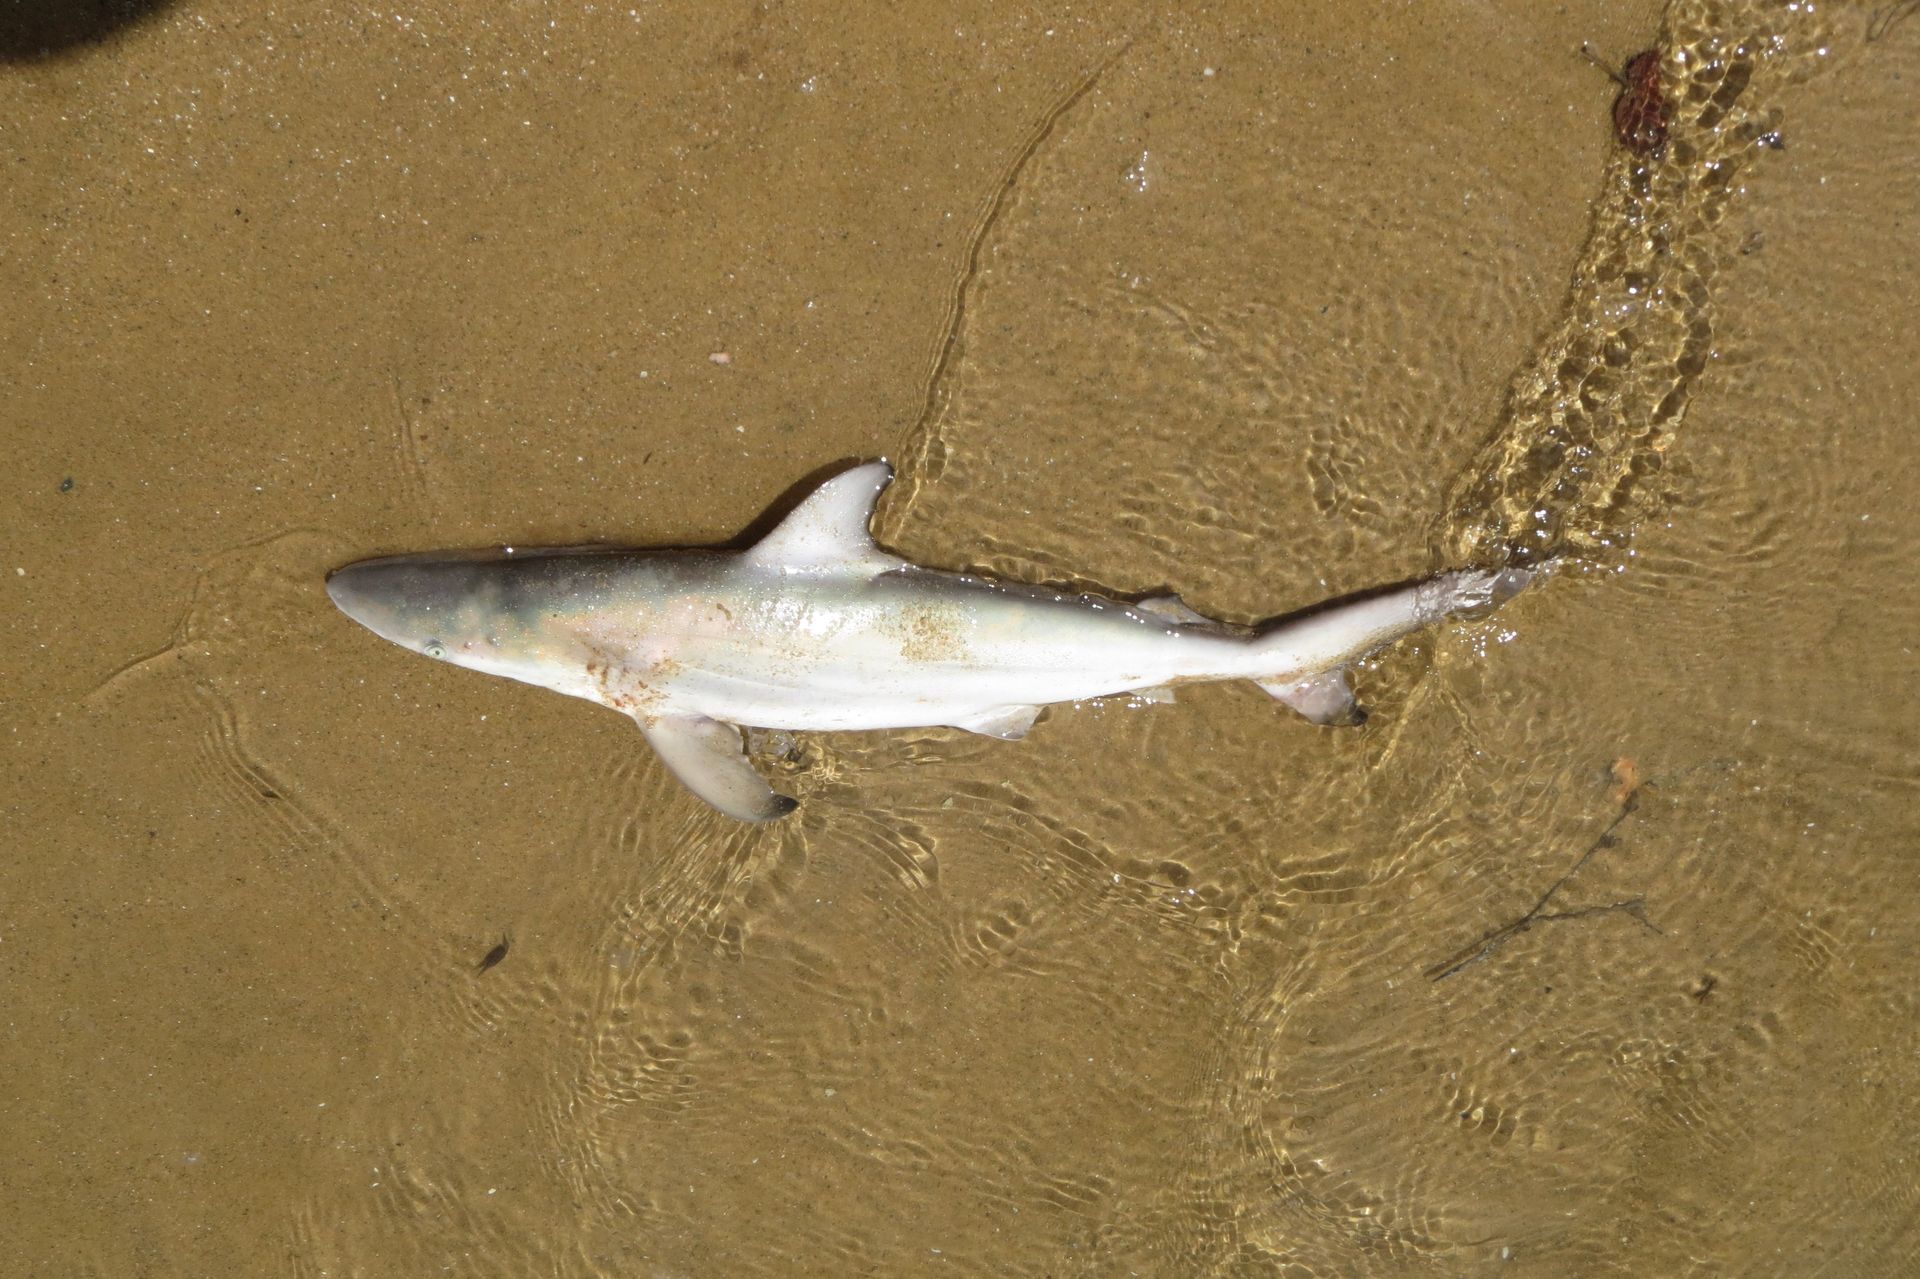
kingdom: Animalia
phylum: Chordata
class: Elasmobranchii
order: Carcharhiniformes
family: Carcharhinidae
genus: Carcharhinus
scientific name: Carcharhinus tilstoni
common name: Australian blacktip shark
